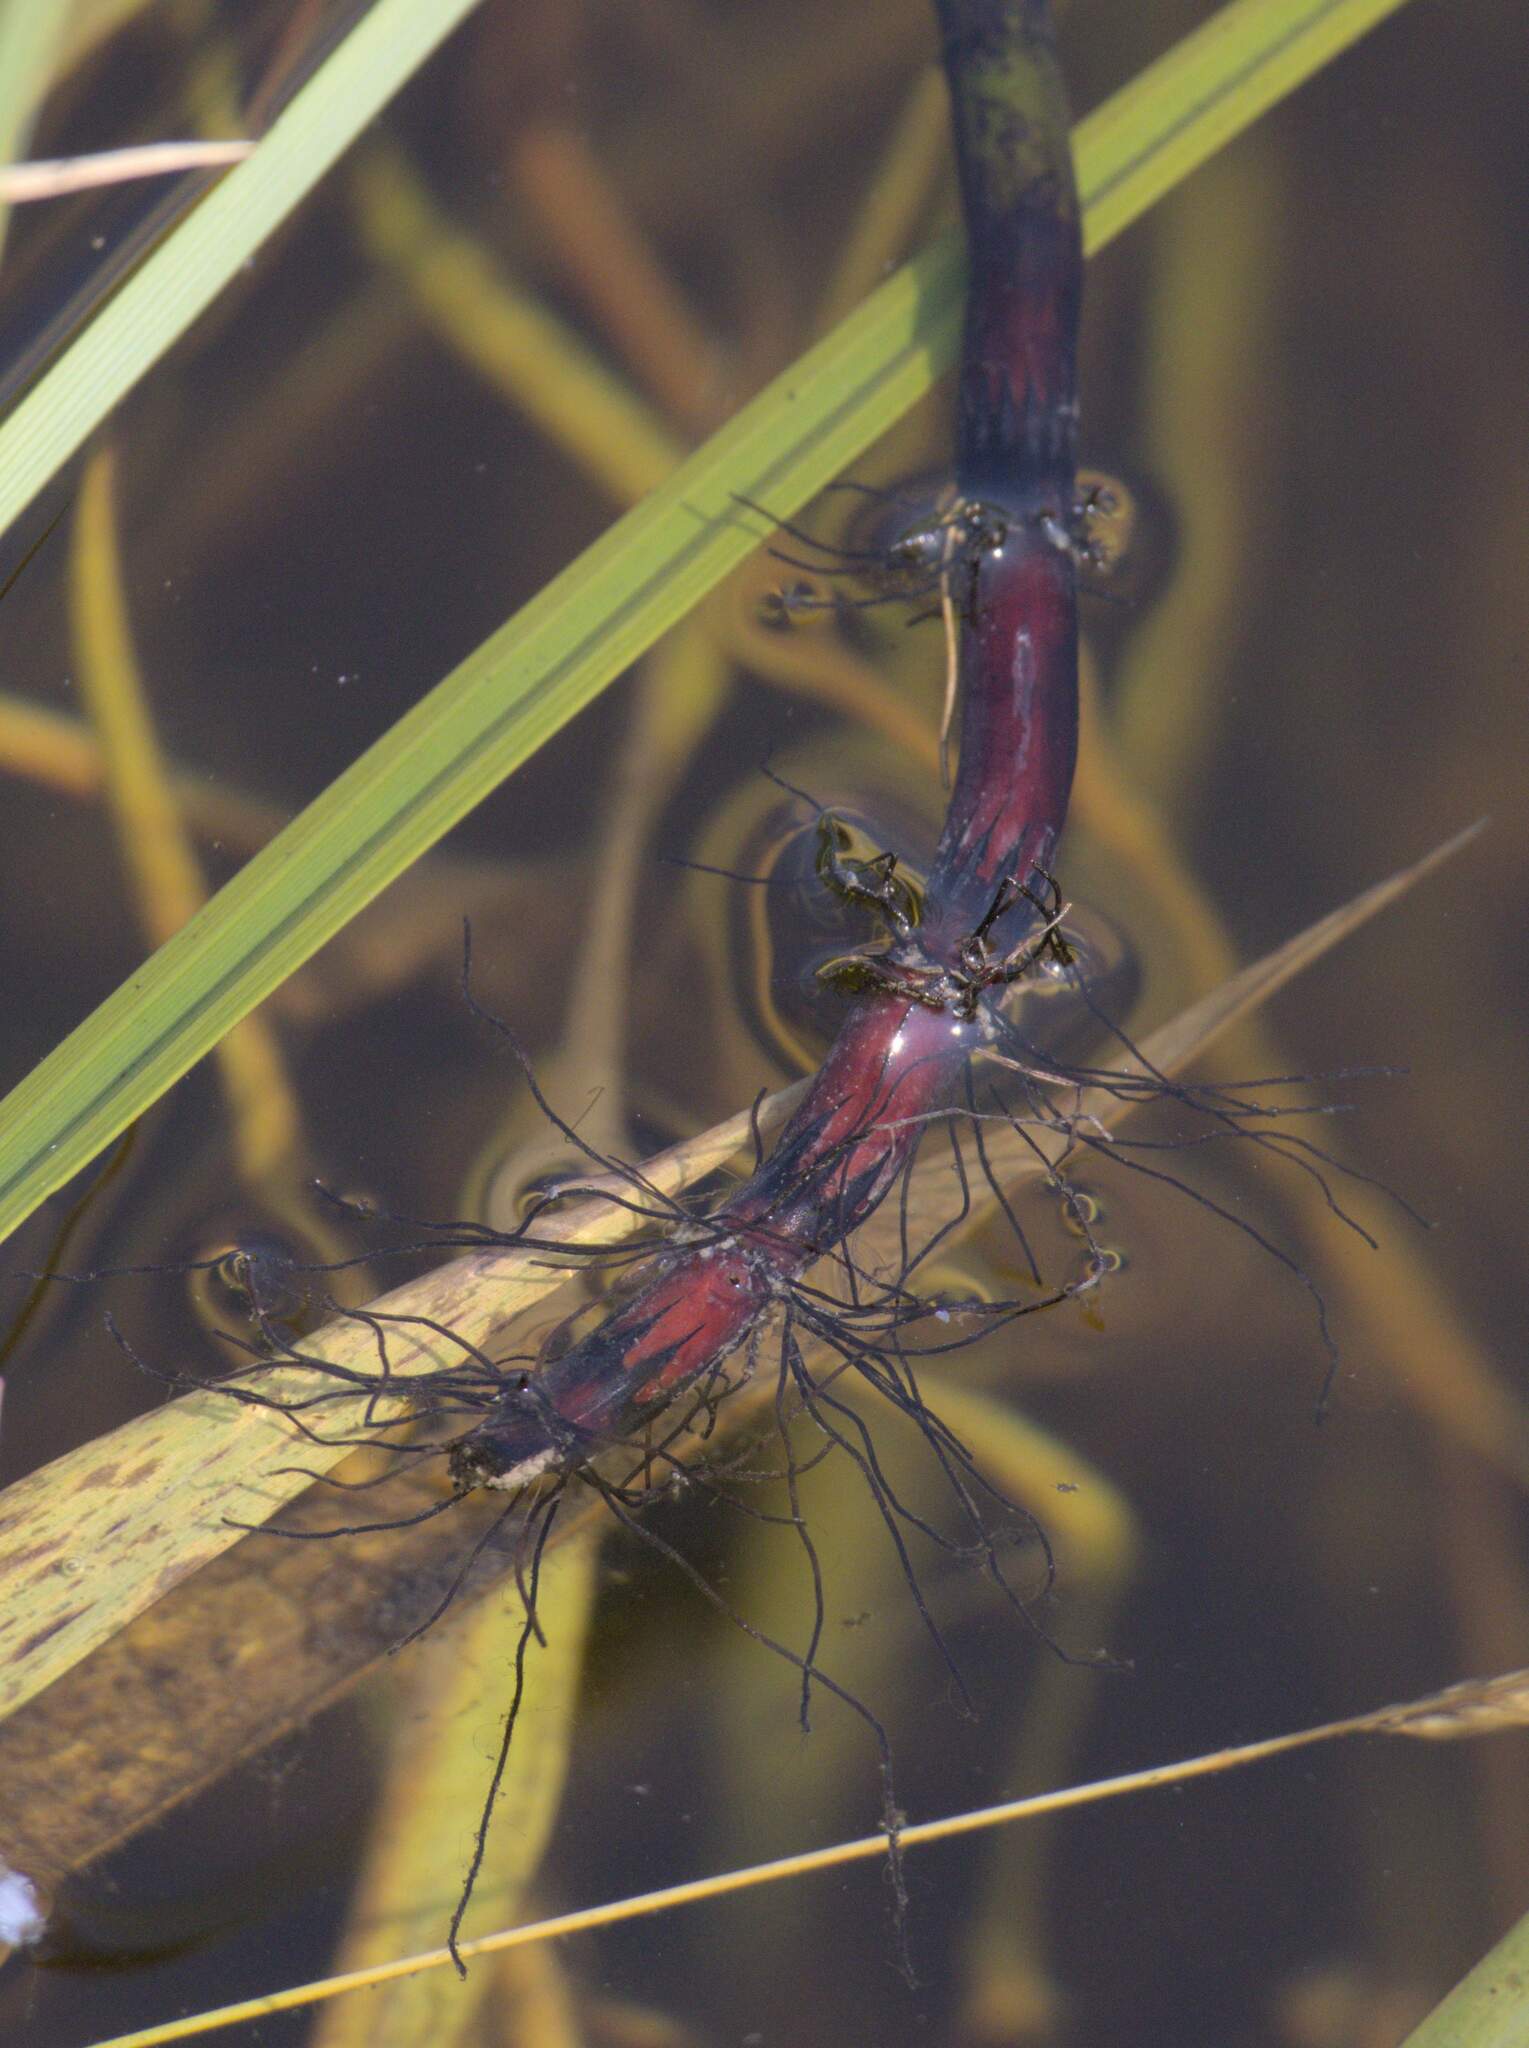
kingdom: Plantae
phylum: Tracheophyta
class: Polypodiopsida
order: Equisetales
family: Equisetaceae
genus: Equisetum
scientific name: Equisetum fluviatile
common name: Water horsetail
